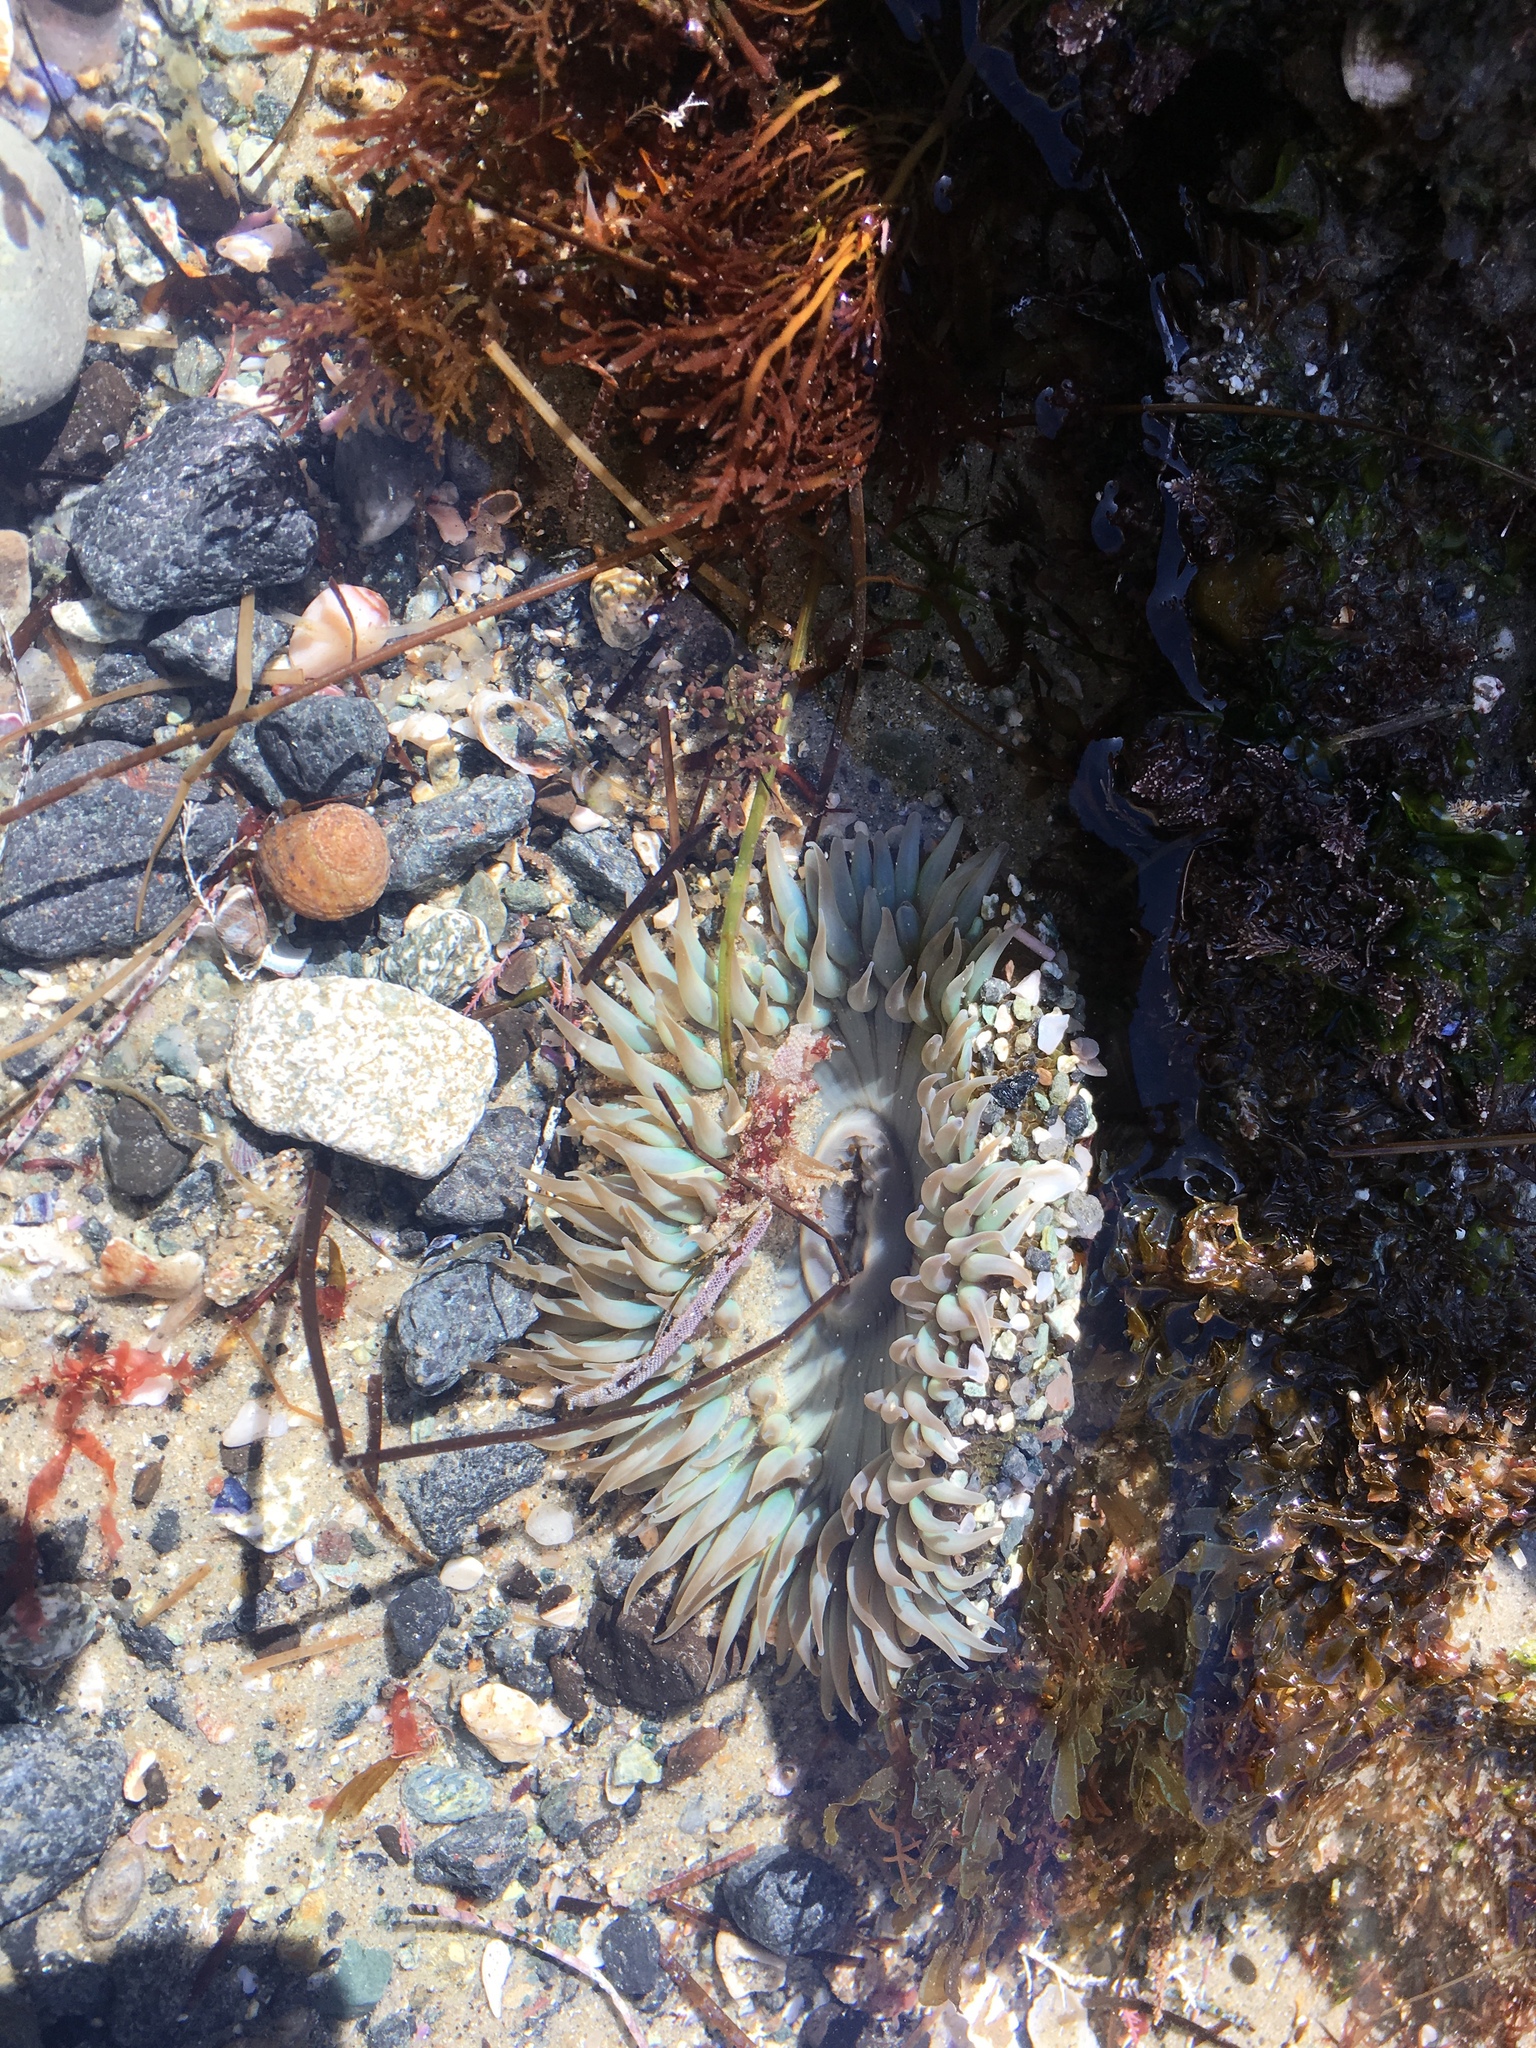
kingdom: Animalia
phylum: Cnidaria
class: Anthozoa
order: Actiniaria
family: Actiniidae
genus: Anthopleura
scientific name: Anthopleura sola
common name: Sun anemone
